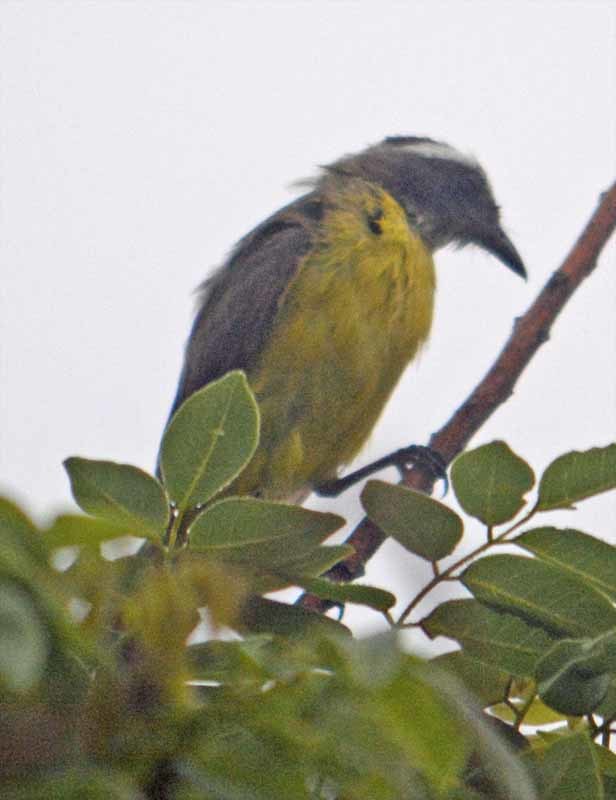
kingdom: Animalia
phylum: Chordata
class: Aves
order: Passeriformes
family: Tyrannidae
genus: Myiozetetes
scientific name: Myiozetetes similis
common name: Social flycatcher
